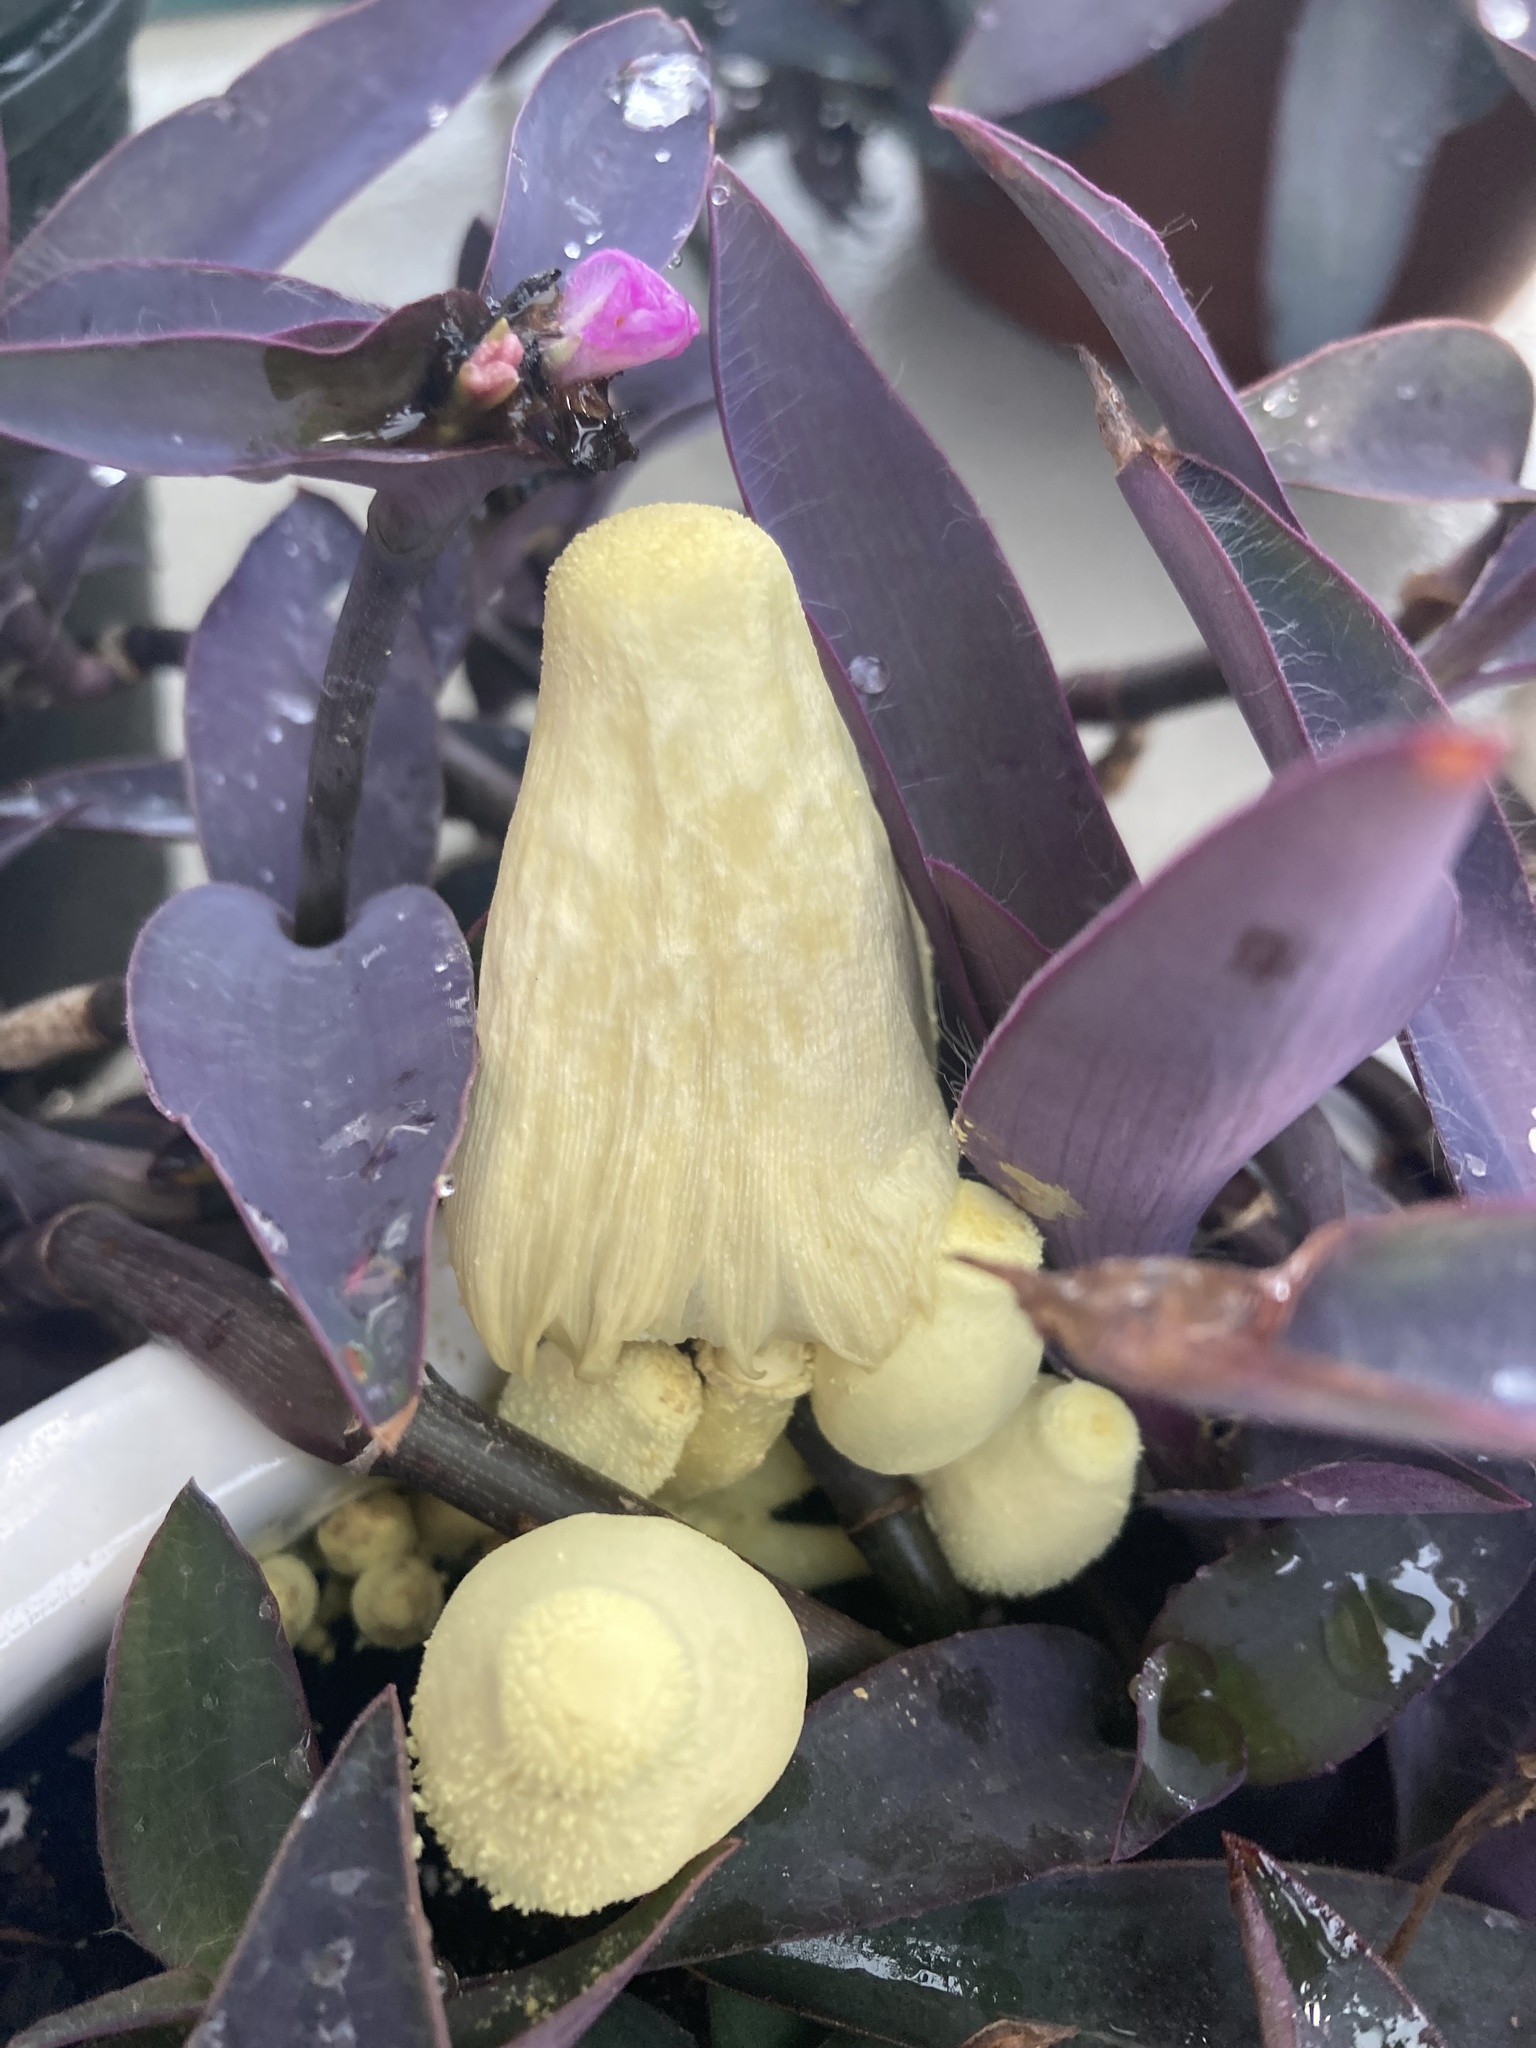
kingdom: Fungi
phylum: Basidiomycota
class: Agaricomycetes
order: Agaricales
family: Agaricaceae
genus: Leucocoprinus
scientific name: Leucocoprinus birnbaumii
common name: Plantpot dapperling
